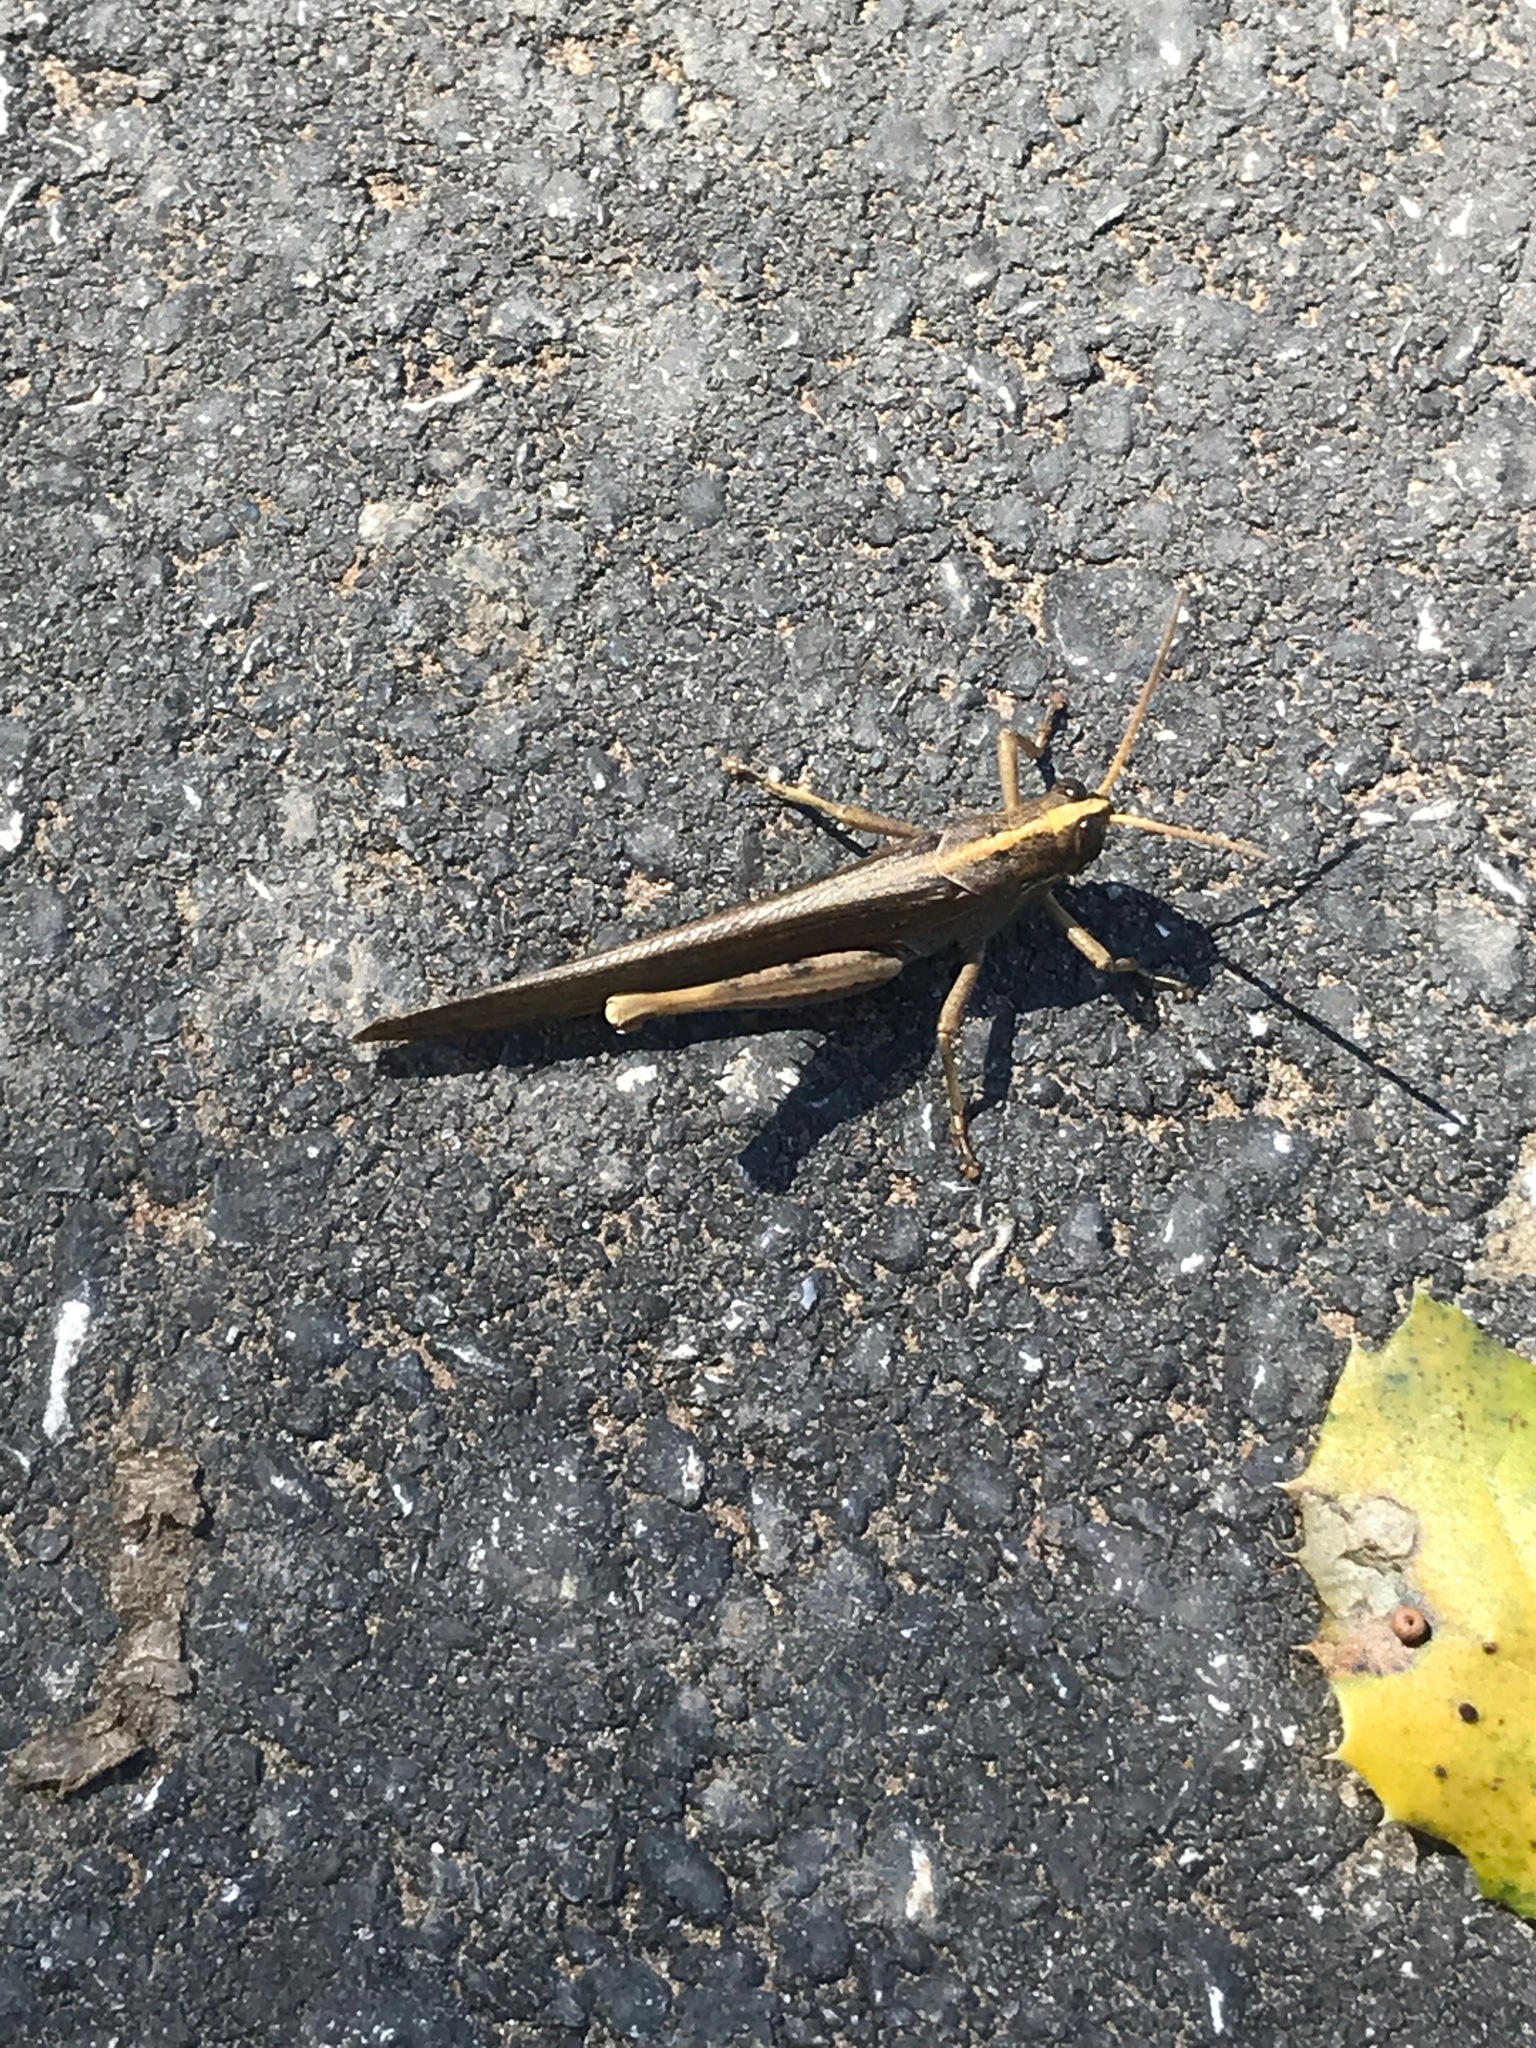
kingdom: Animalia
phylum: Arthropoda
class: Insecta
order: Orthoptera
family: Acrididae
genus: Schistocerca
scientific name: Schistocerca nitens
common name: Vagrant grasshopper
